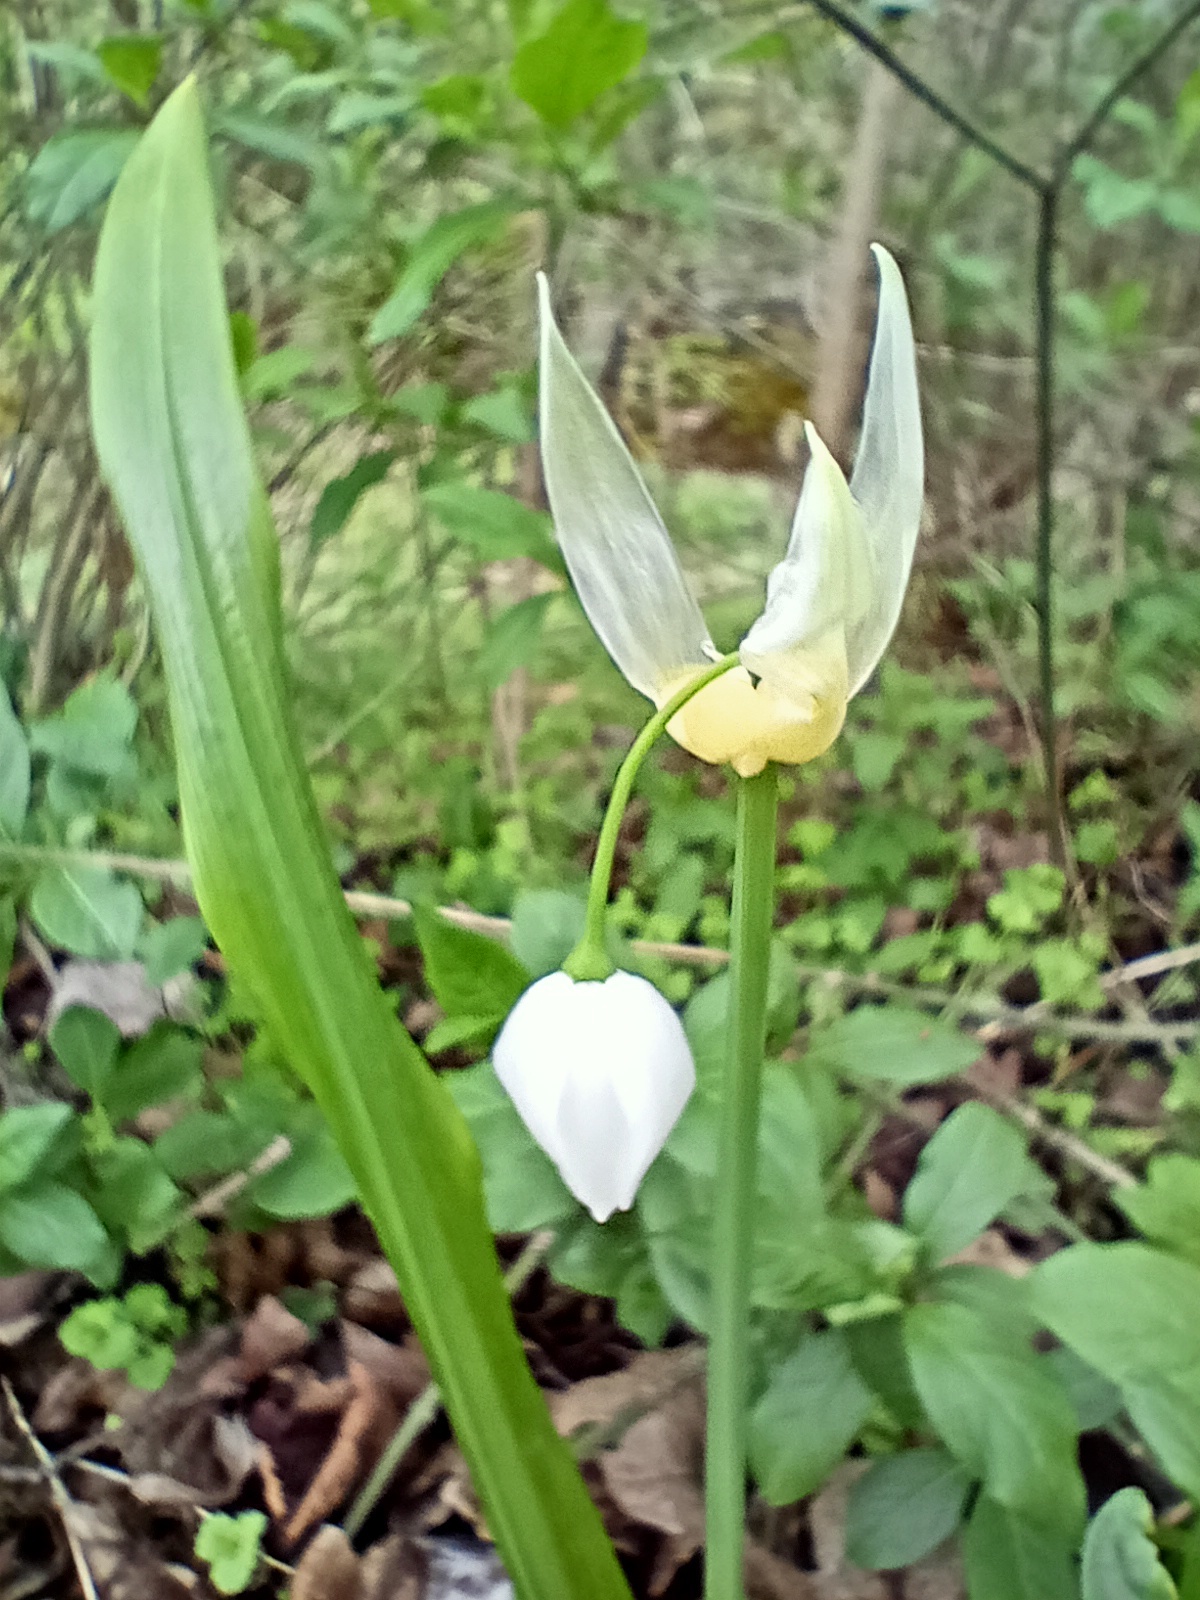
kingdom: Plantae
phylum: Tracheophyta
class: Liliopsida
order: Asparagales
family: Amaryllidaceae
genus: Allium
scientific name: Allium paradoxum
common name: Few-flowered garlic
